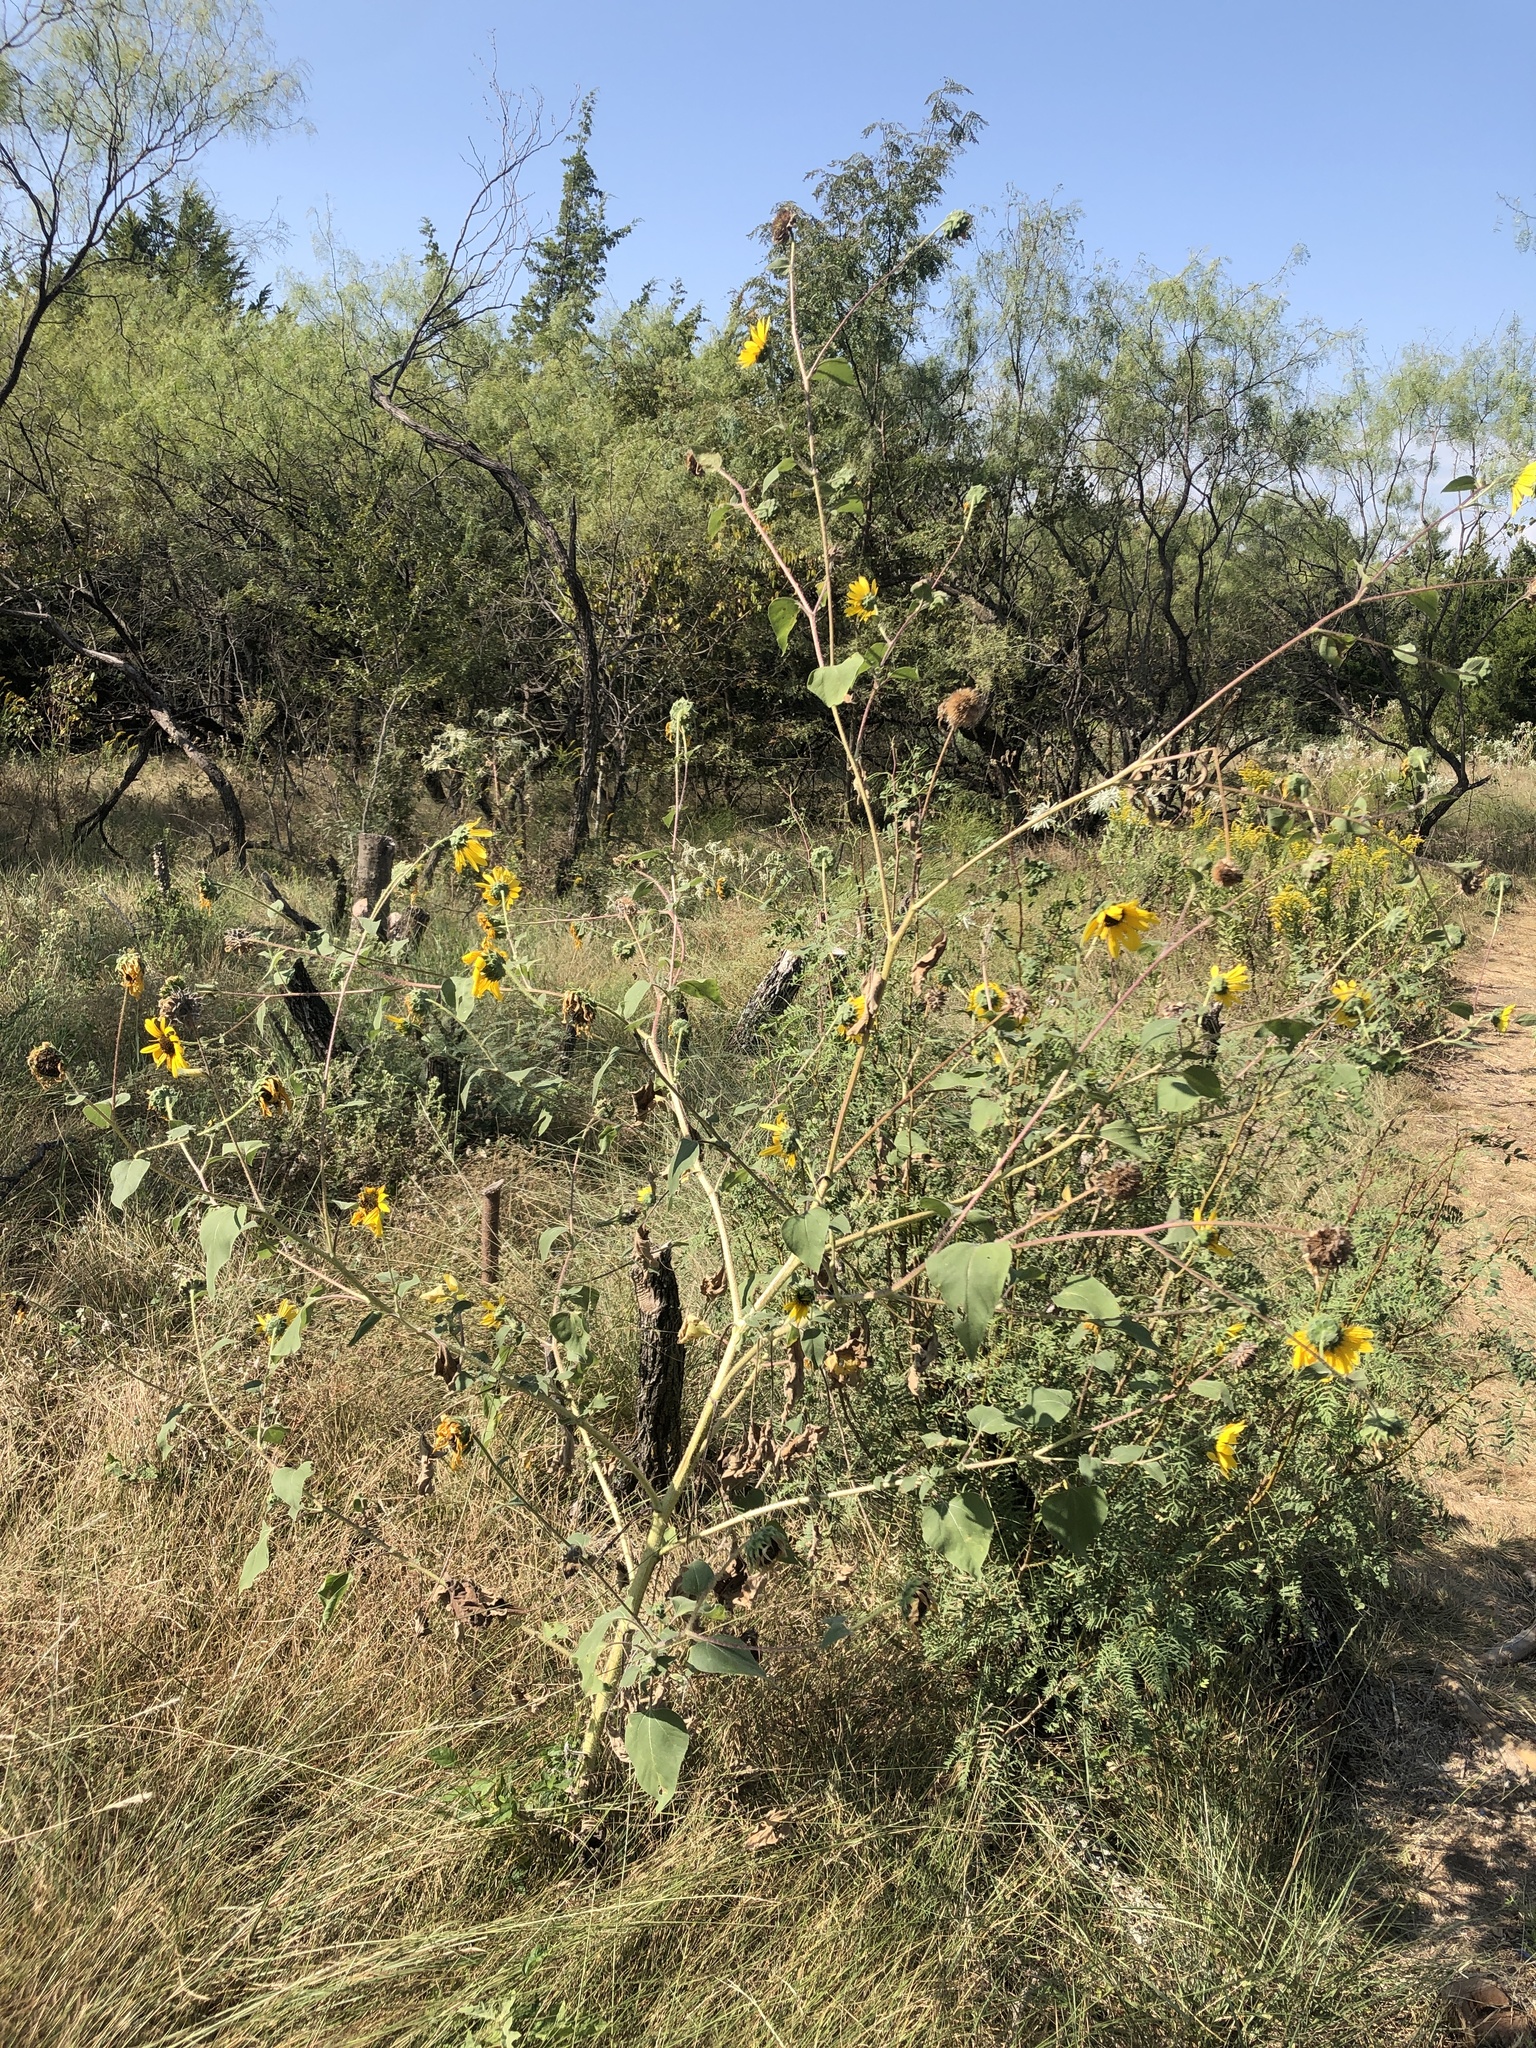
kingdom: Plantae
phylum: Tracheophyta
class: Magnoliopsida
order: Asterales
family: Asteraceae
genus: Helianthus
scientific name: Helianthus annuus
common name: Sunflower
